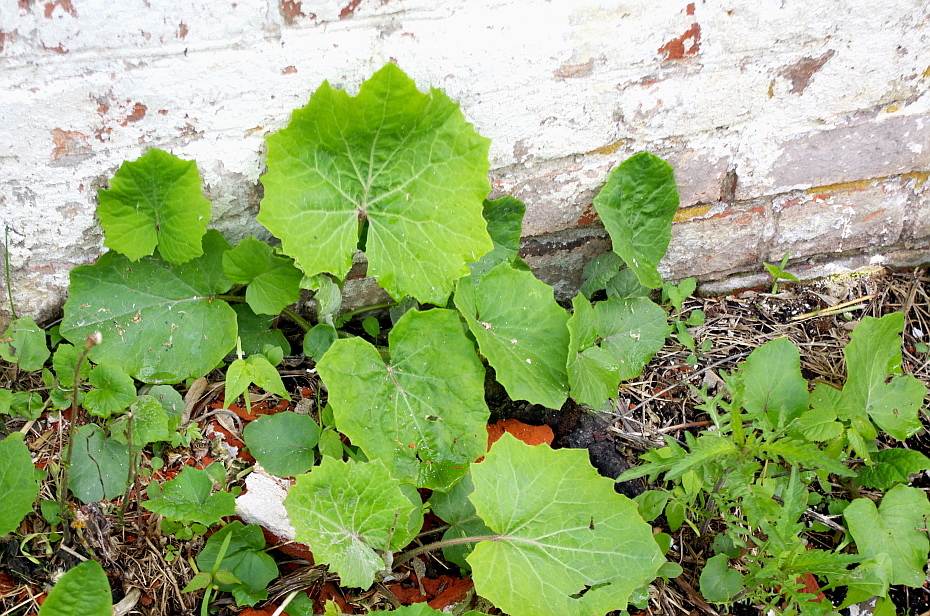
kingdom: Plantae
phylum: Tracheophyta
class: Magnoliopsida
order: Asterales
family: Asteraceae
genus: Tussilago
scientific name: Tussilago farfara
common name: Coltsfoot
